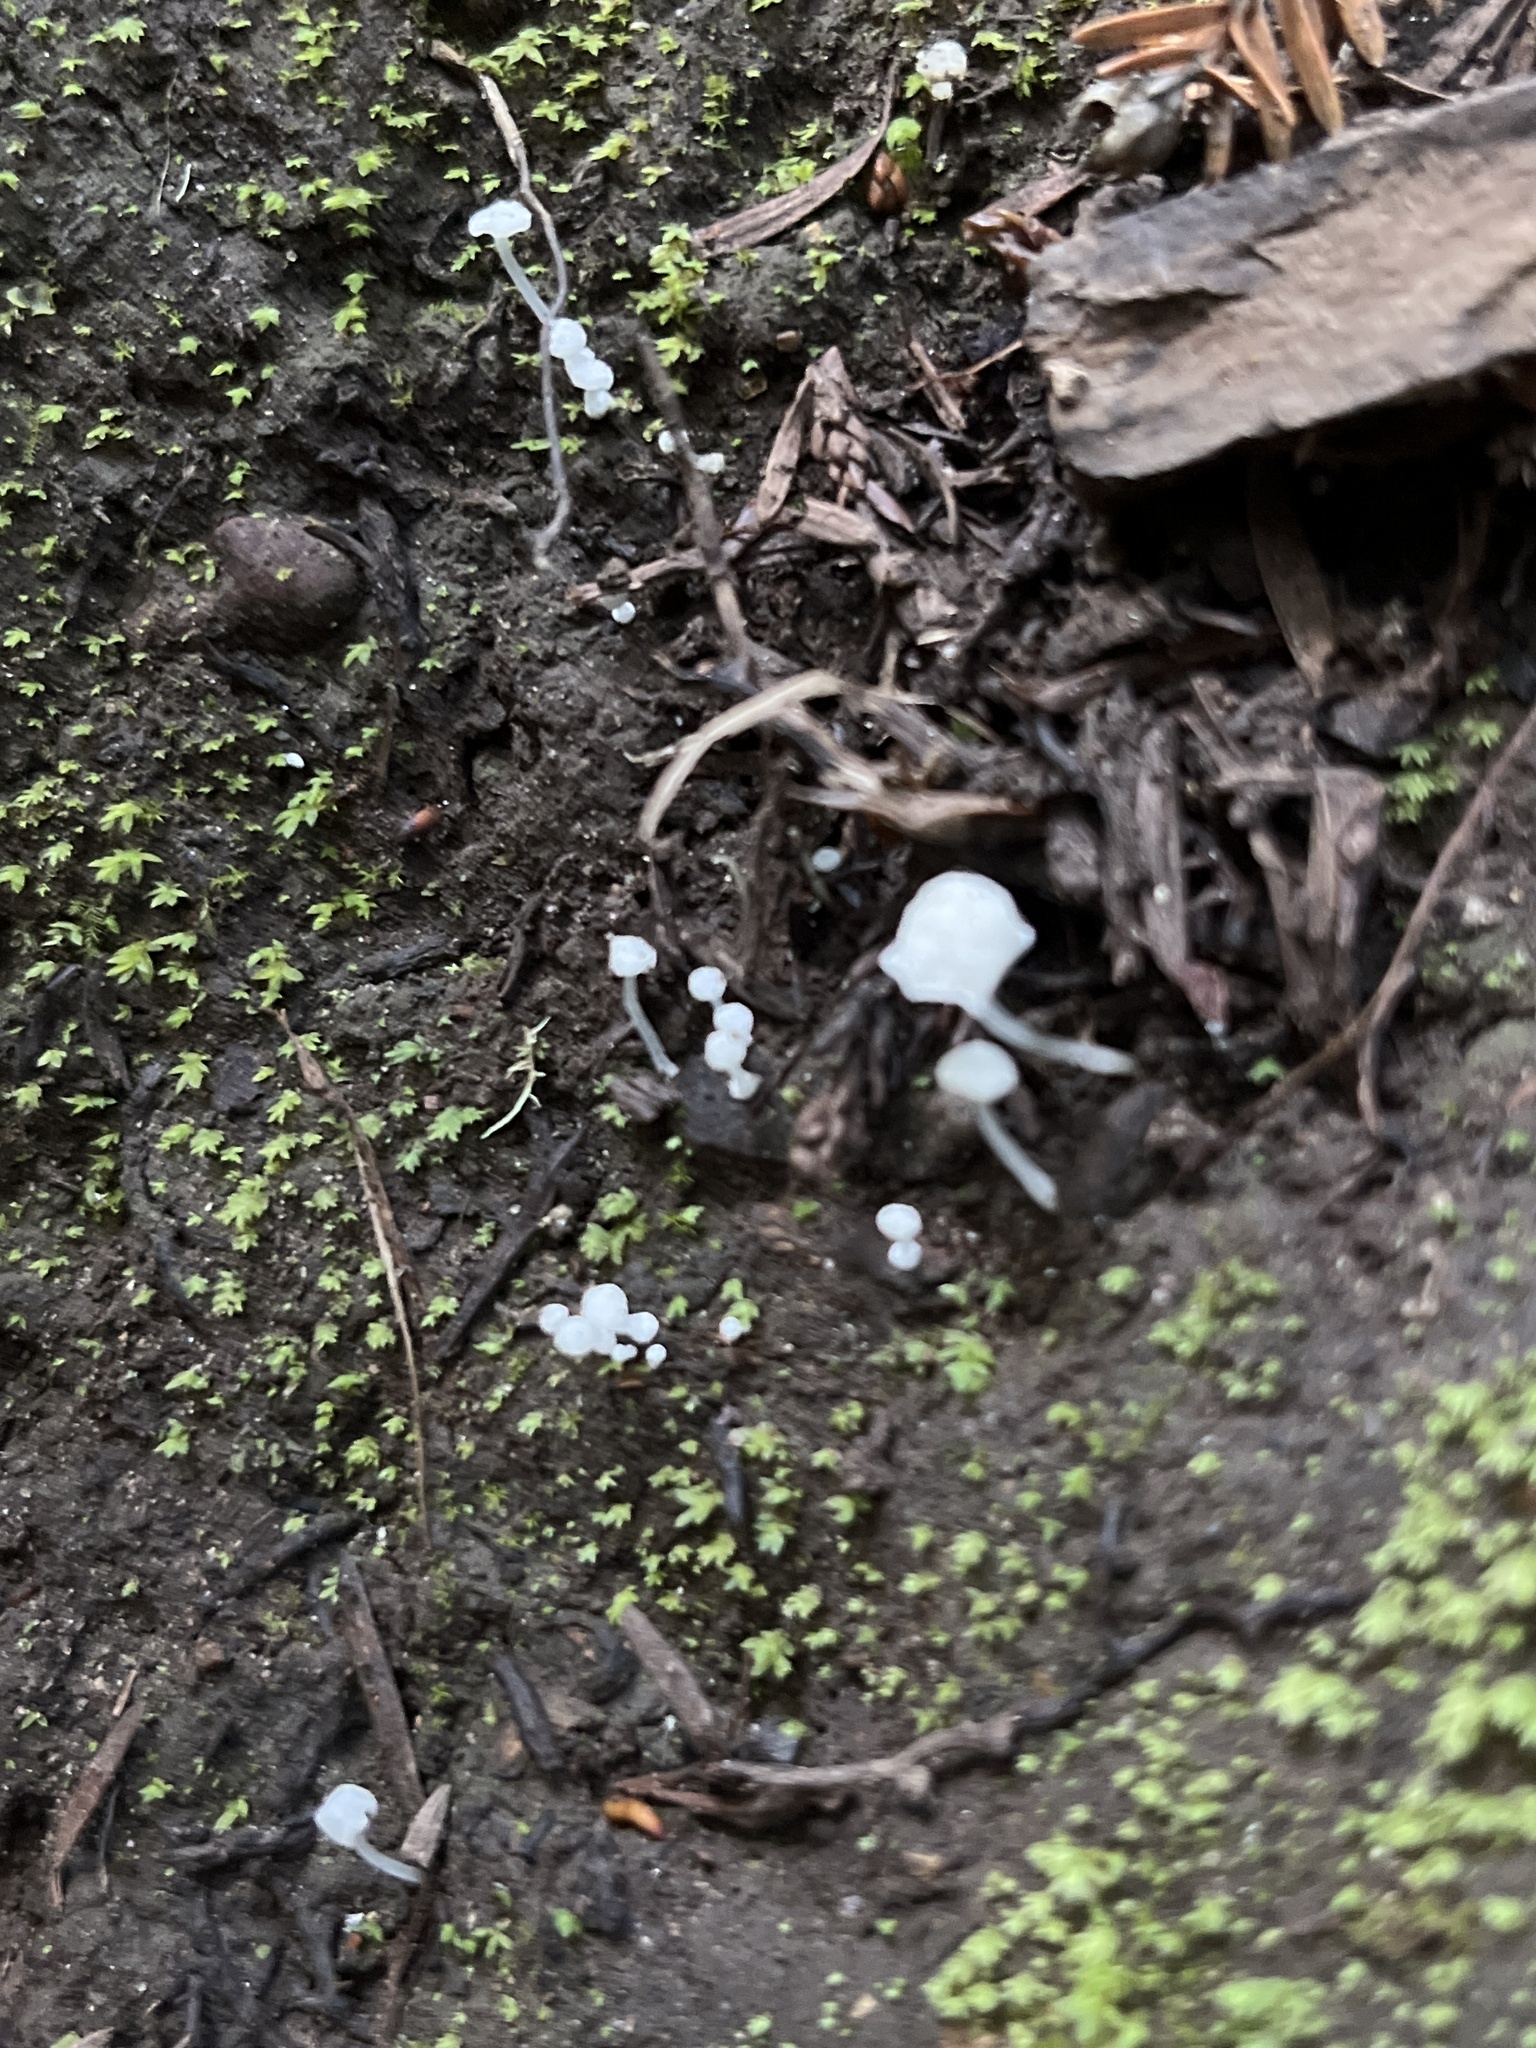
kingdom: Fungi
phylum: Basidiomycota
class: Agaricomycetes
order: Agaricales
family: Mycenaceae
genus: Mycena
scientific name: Mycena tenerrima
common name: Frosty bonnet
